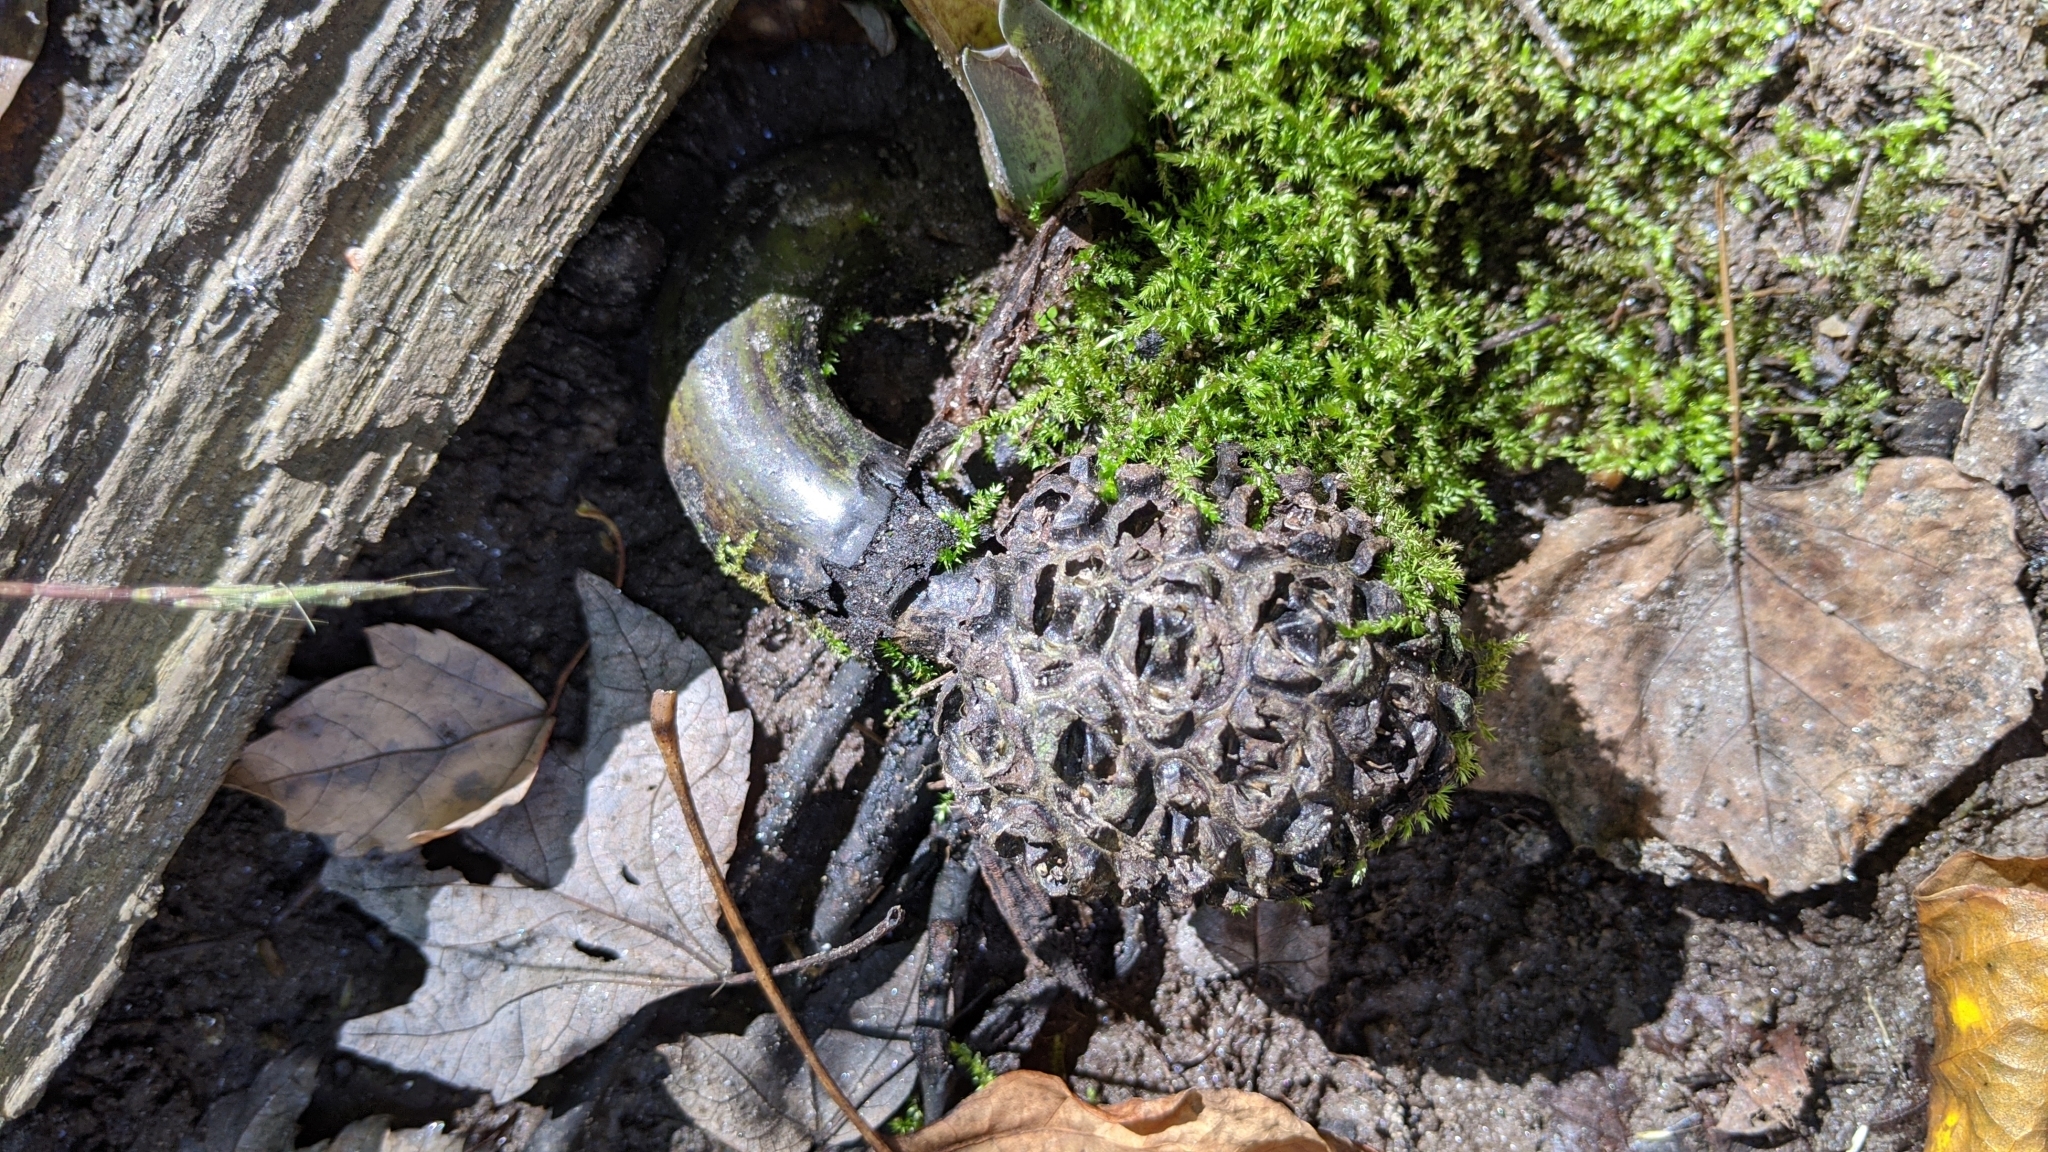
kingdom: Plantae
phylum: Tracheophyta
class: Liliopsida
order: Alismatales
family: Araceae
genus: Symplocarpus
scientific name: Symplocarpus foetidus
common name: Eastern skunk cabbage
